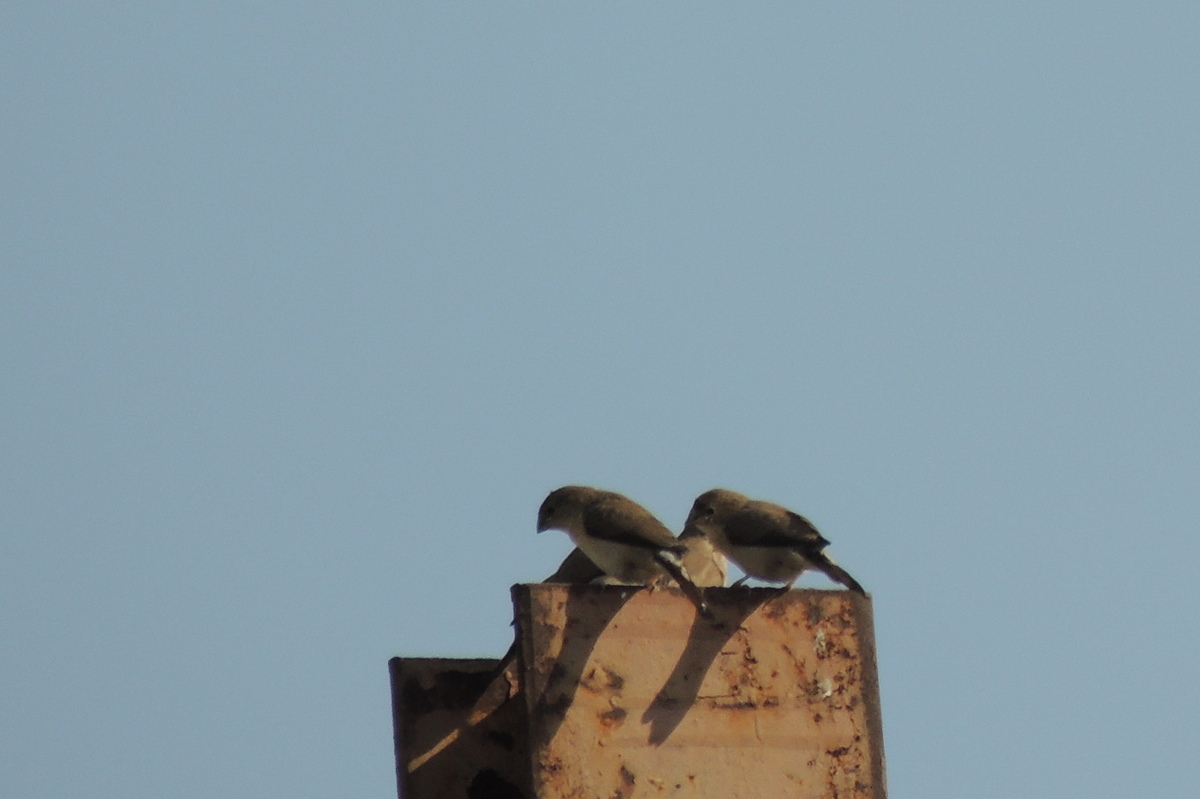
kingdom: Animalia
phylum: Chordata
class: Aves
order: Passeriformes
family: Estrildidae
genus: Euodice
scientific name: Euodice malabarica
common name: Indian silverbill
